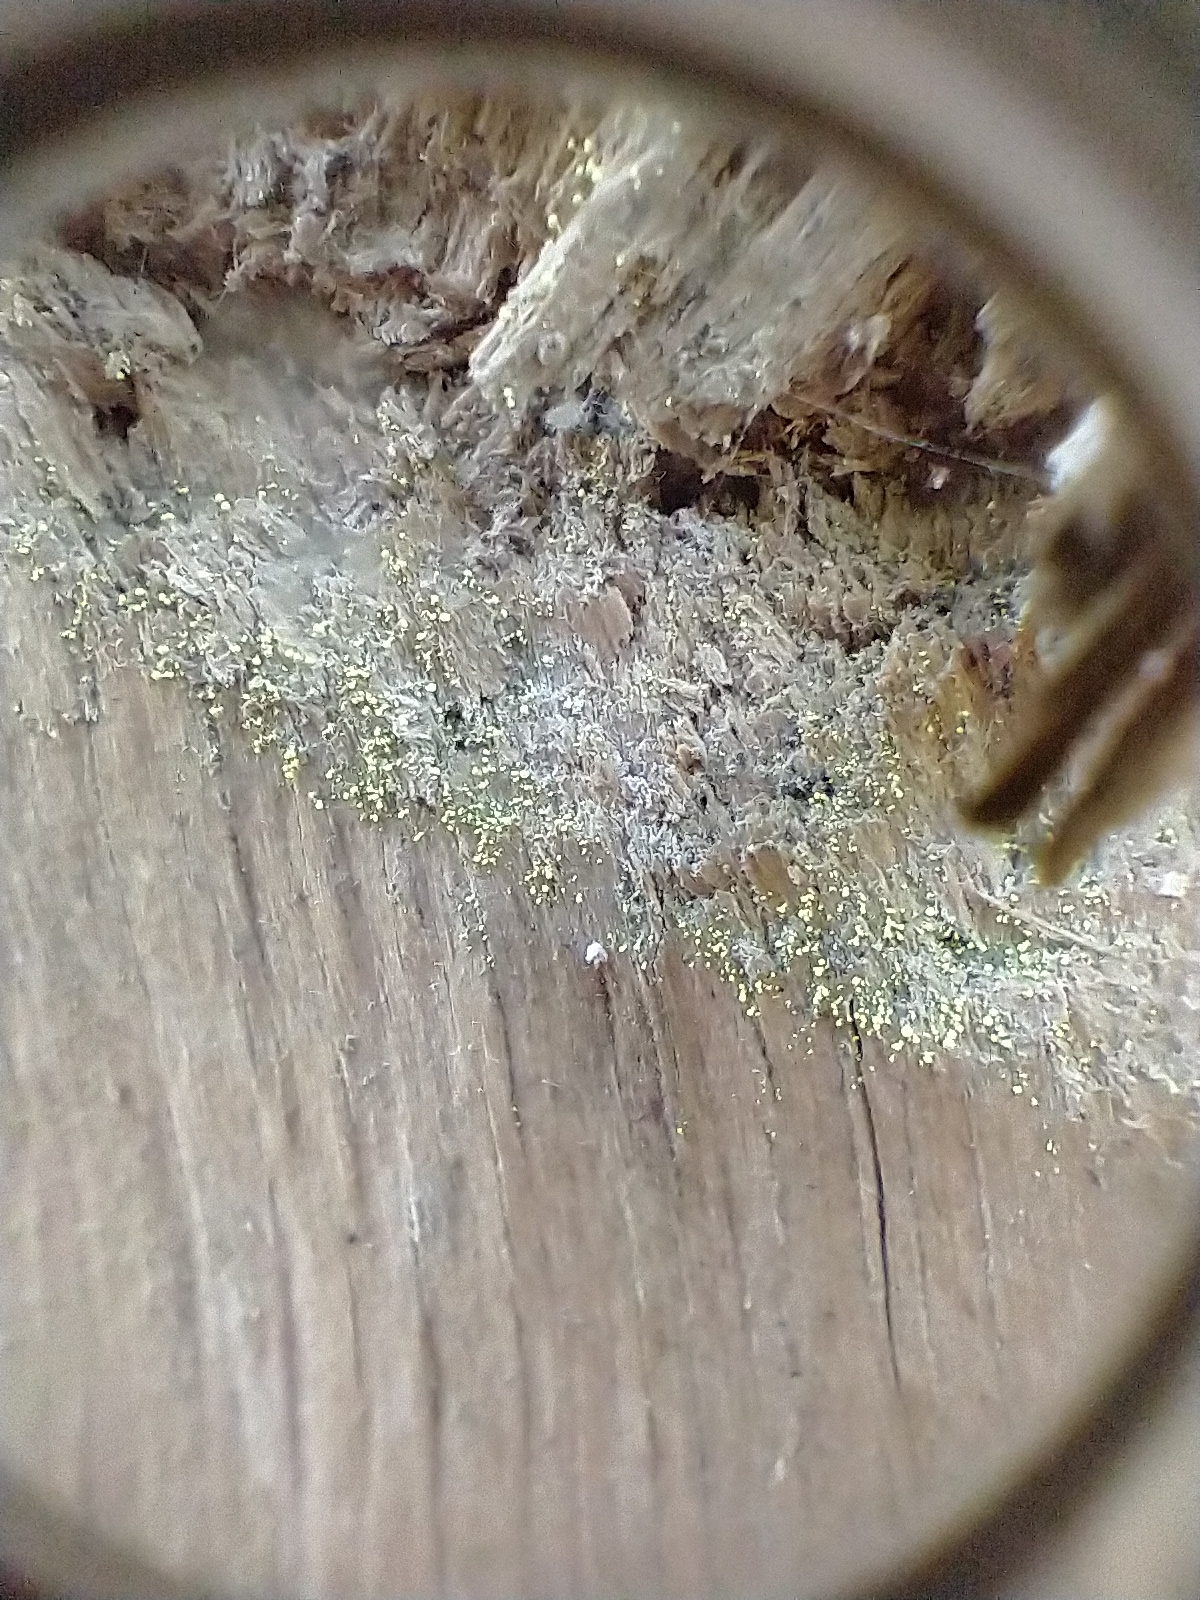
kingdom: Fungi
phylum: Ascomycota
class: Coniocybomycetes
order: Coniocybales
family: Coniocybaceae
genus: Chaenotheca
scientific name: Chaenotheca brachypoda
